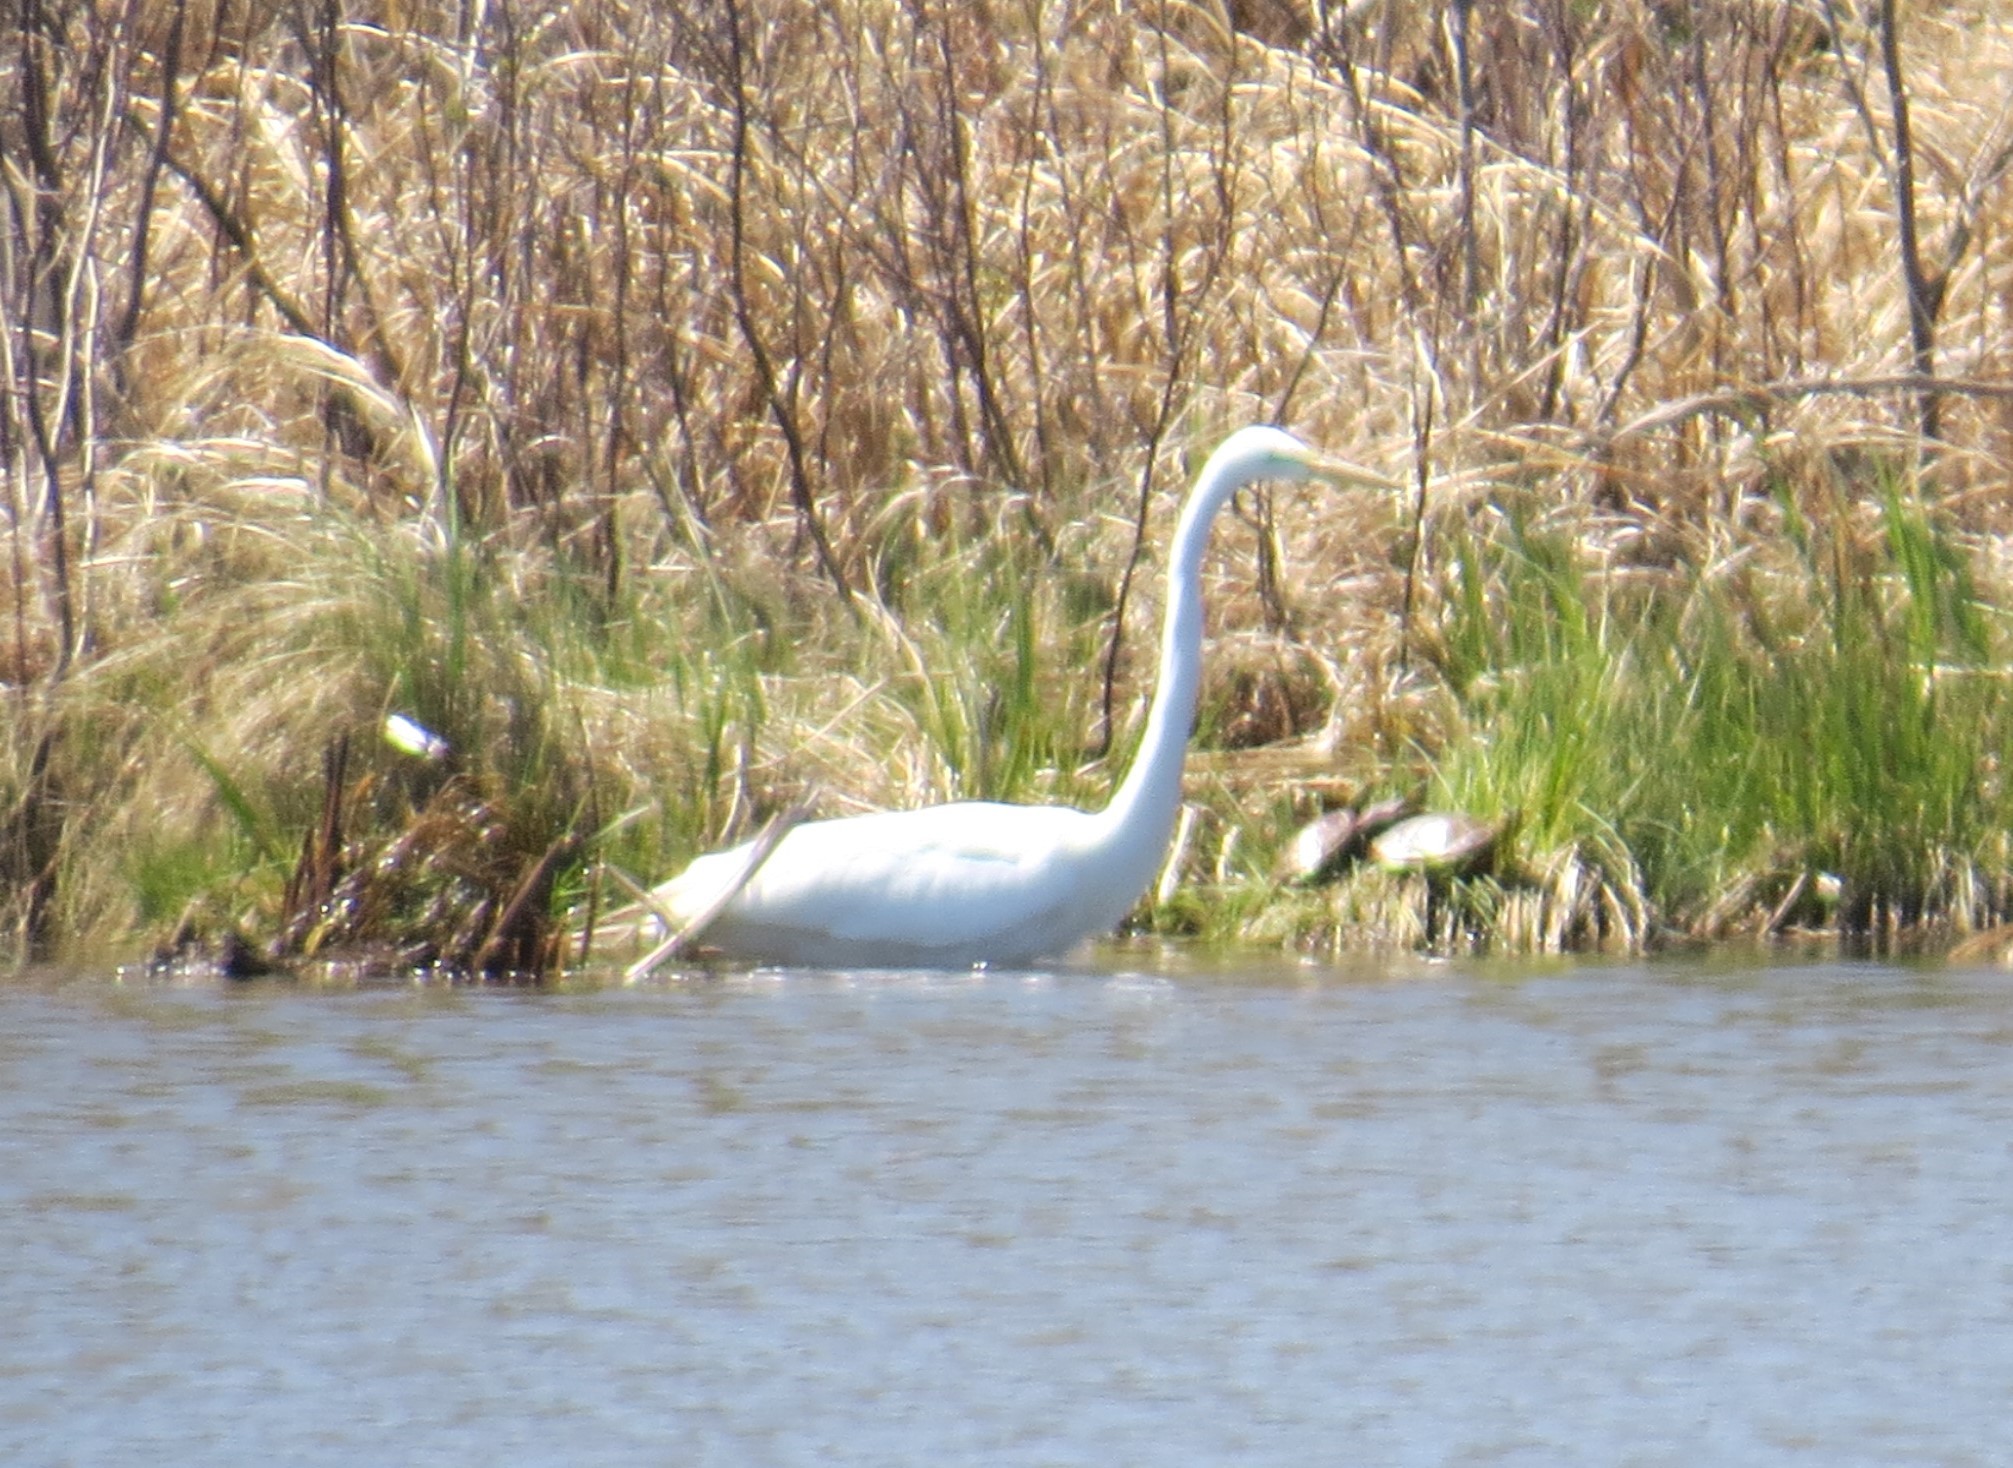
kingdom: Animalia
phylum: Chordata
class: Aves
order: Pelecaniformes
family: Ardeidae
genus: Ardea
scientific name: Ardea alba
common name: Great egret
